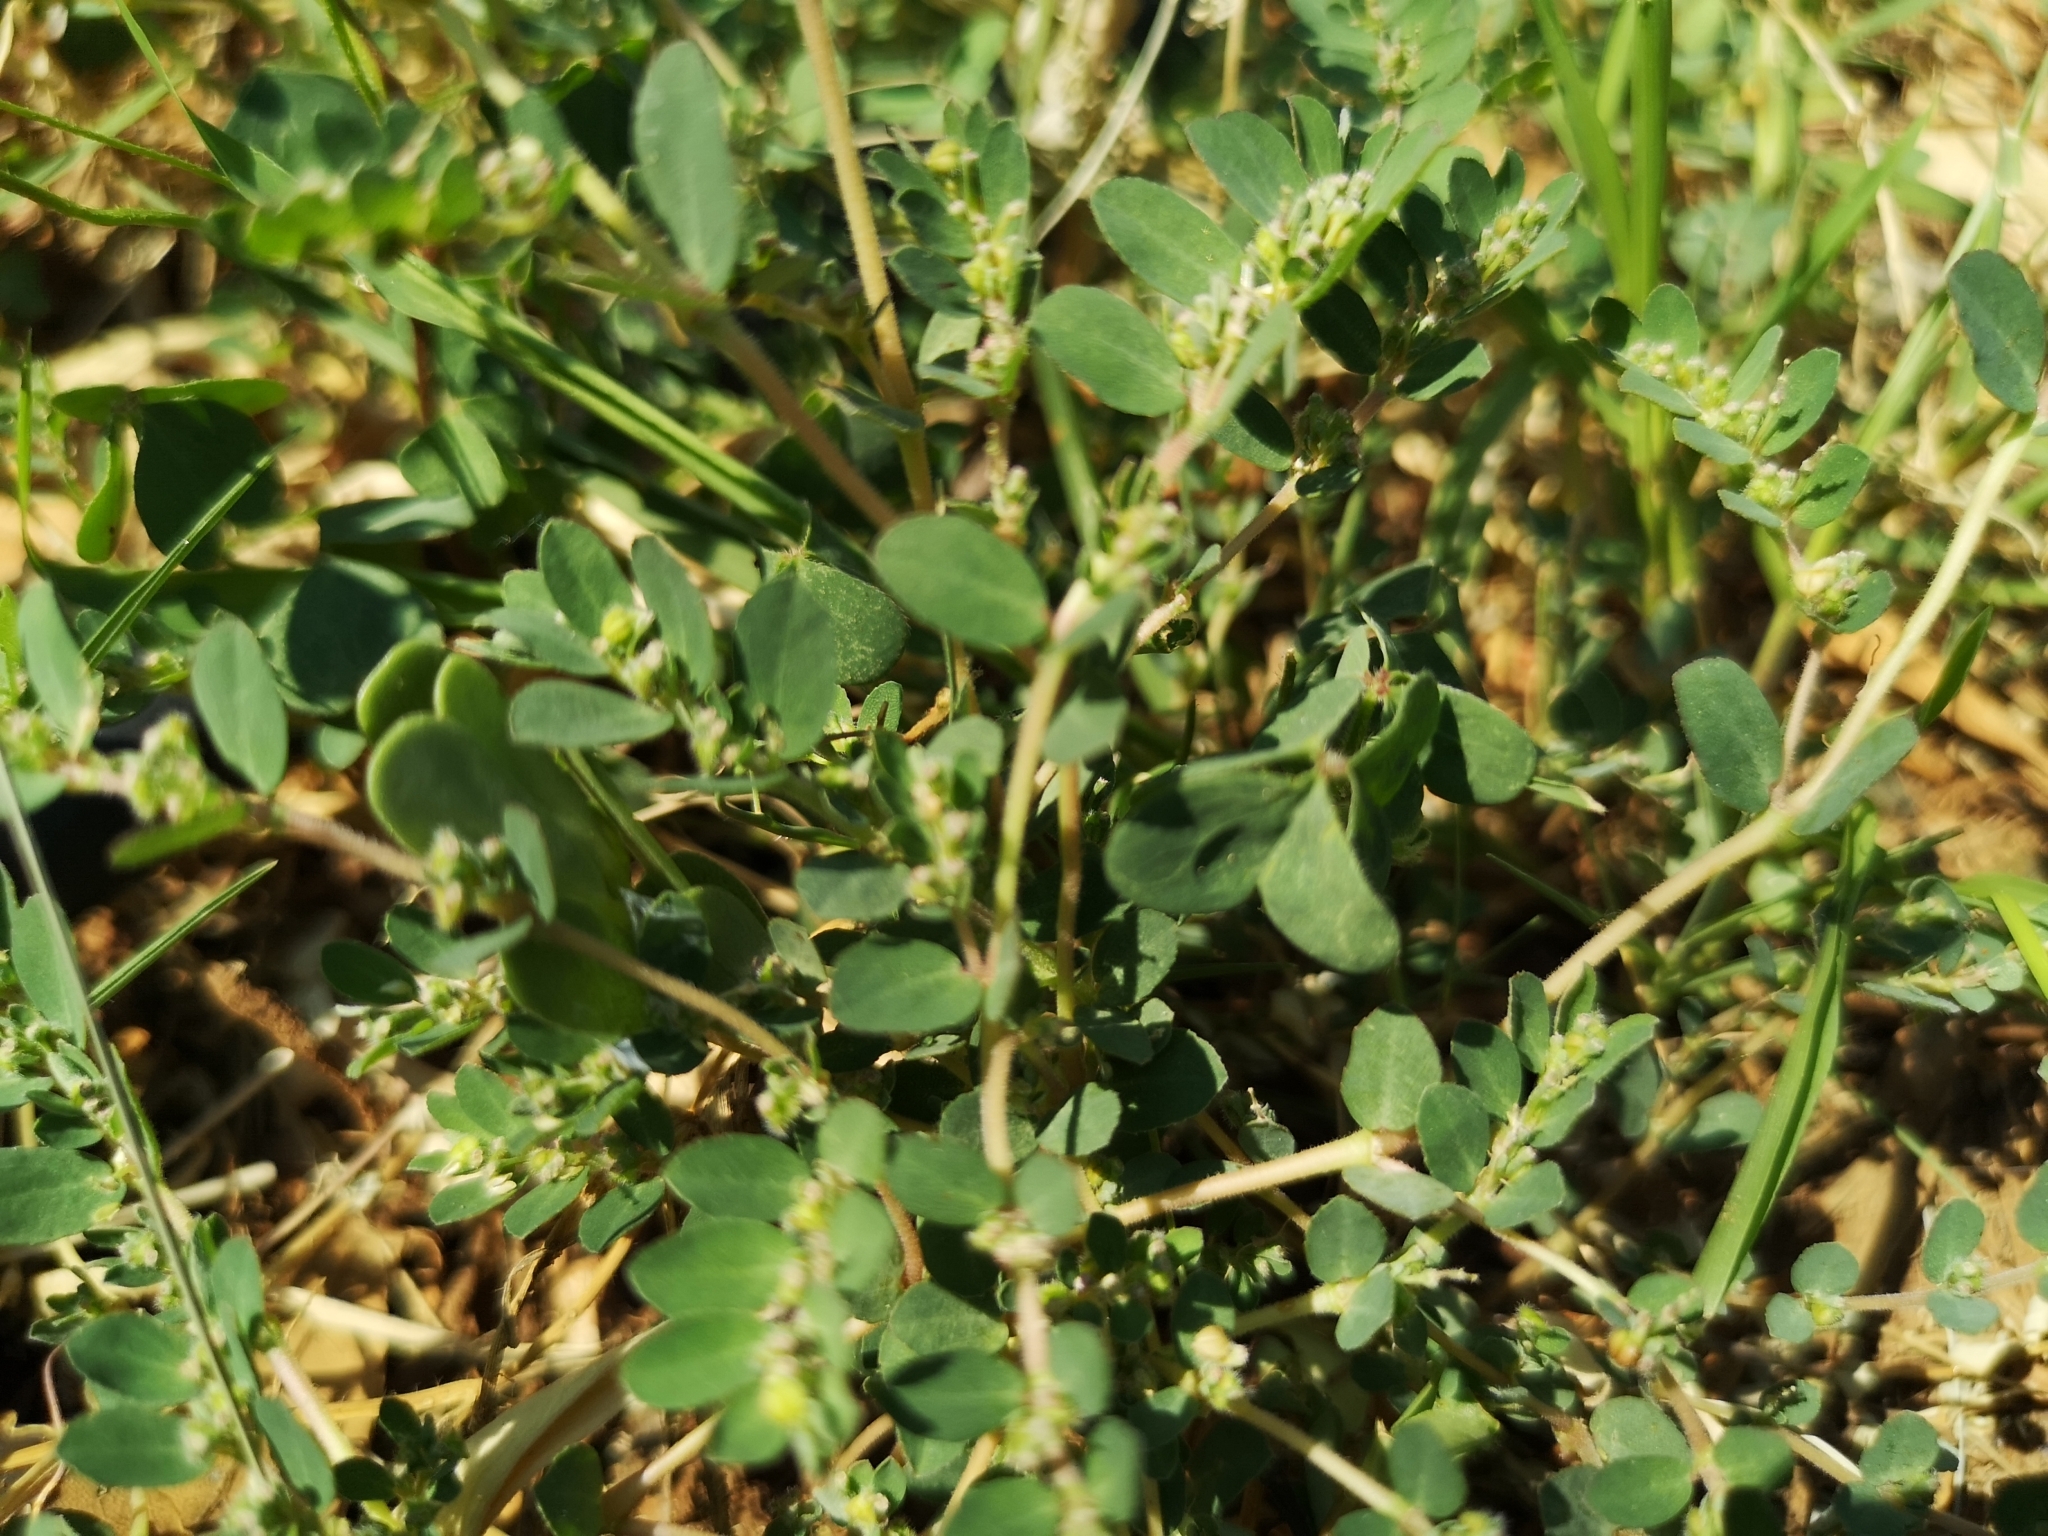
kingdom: Plantae
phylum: Tracheophyta
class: Magnoliopsida
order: Malpighiales
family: Euphorbiaceae
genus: Euphorbia
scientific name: Euphorbia prostrata
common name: Prostrate sandmat
